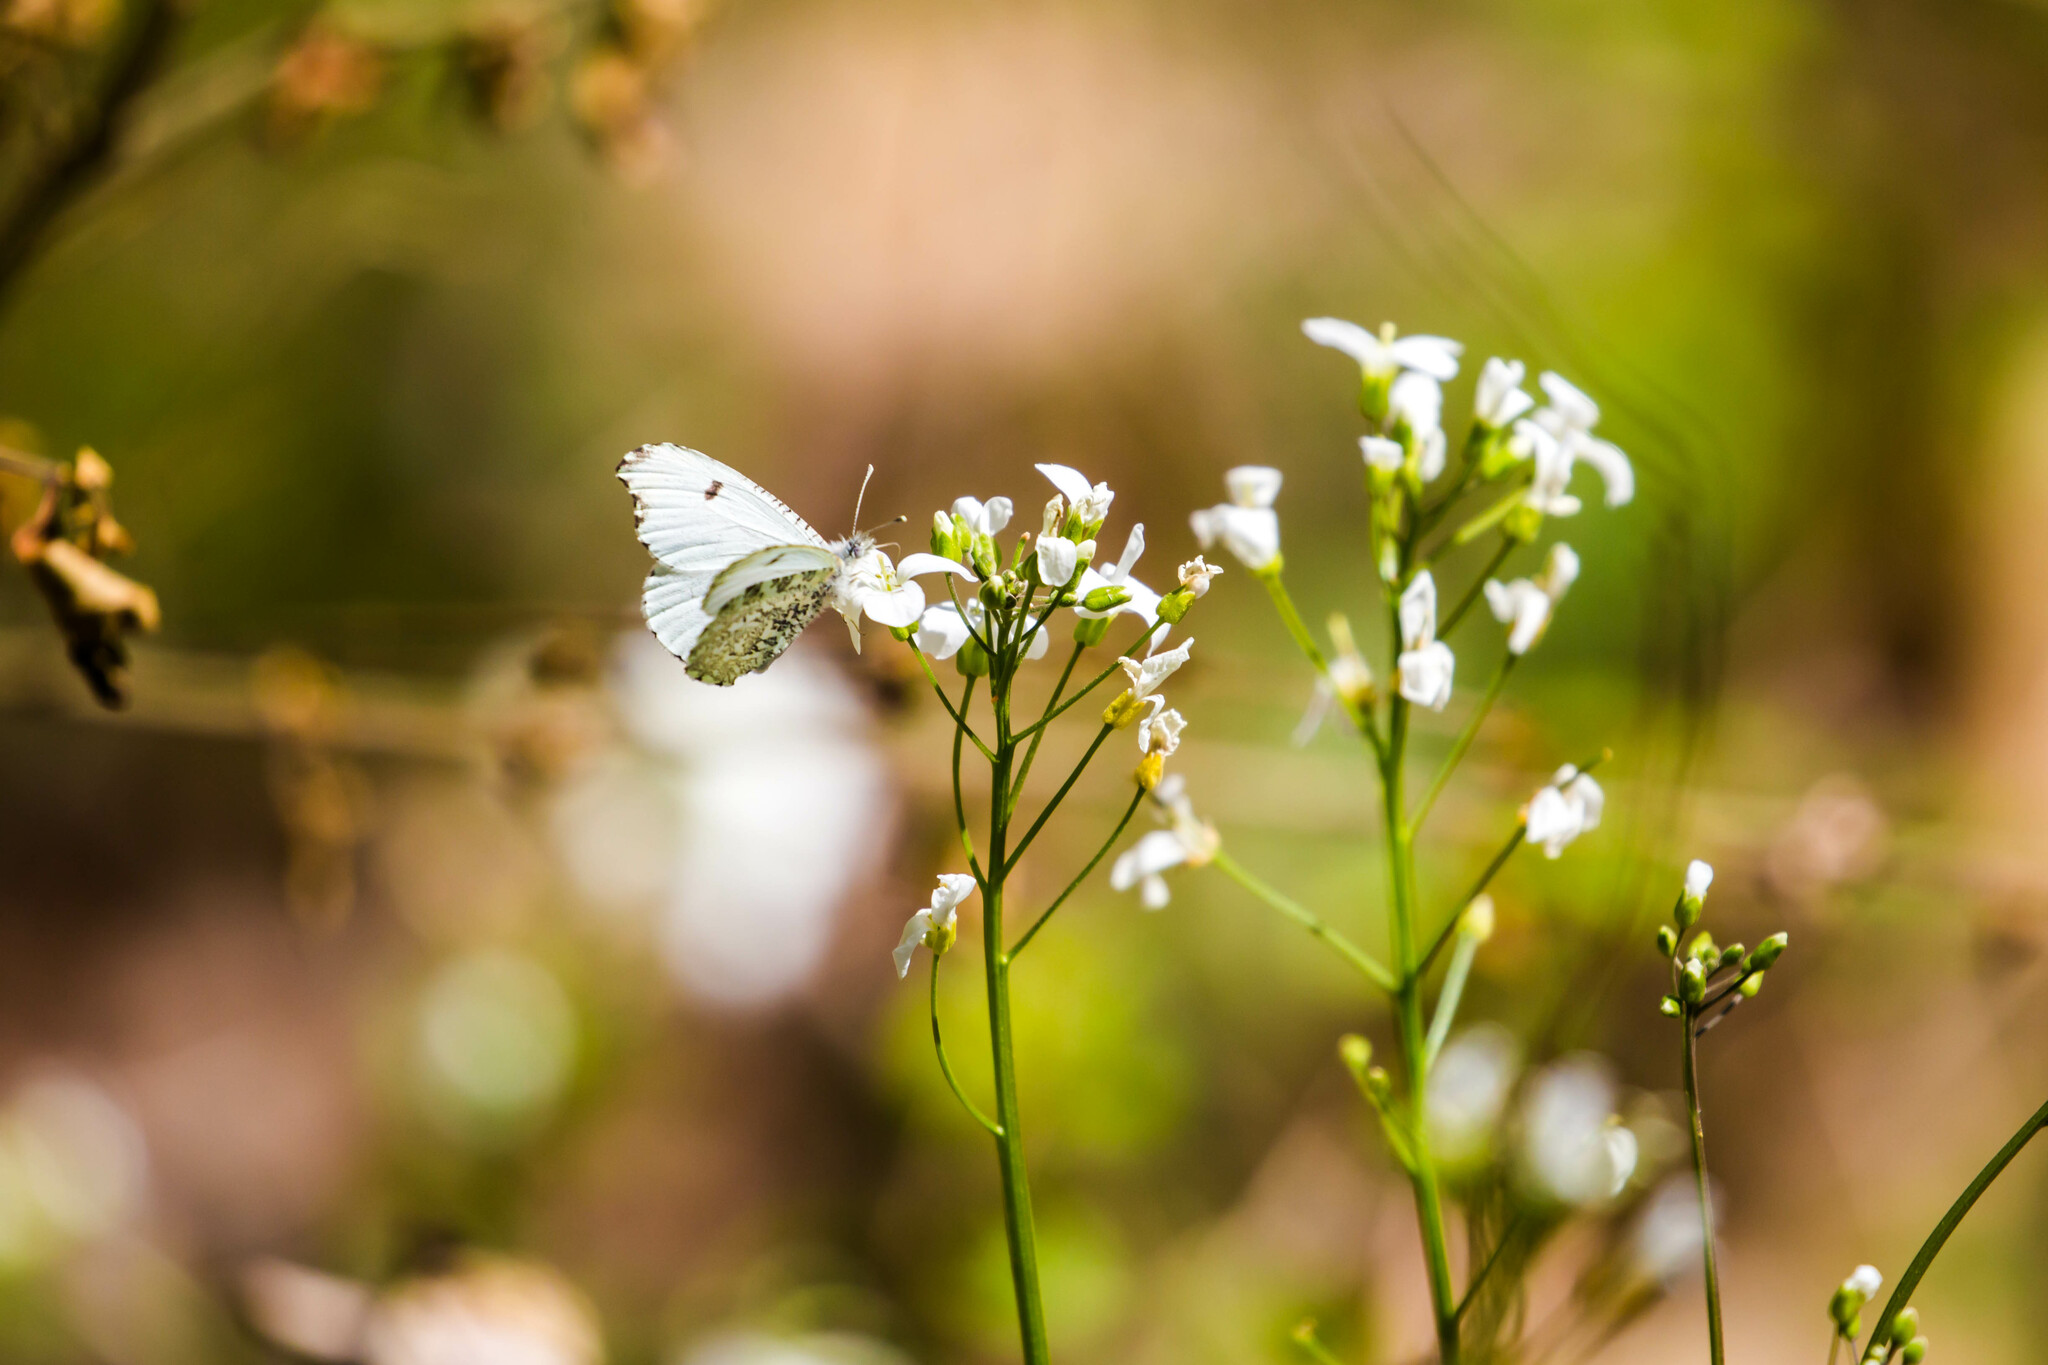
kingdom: Animalia
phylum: Arthropoda
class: Insecta
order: Lepidoptera
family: Pieridae
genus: Anthocharis
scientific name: Anthocharis midea
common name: Falcate orangetip
